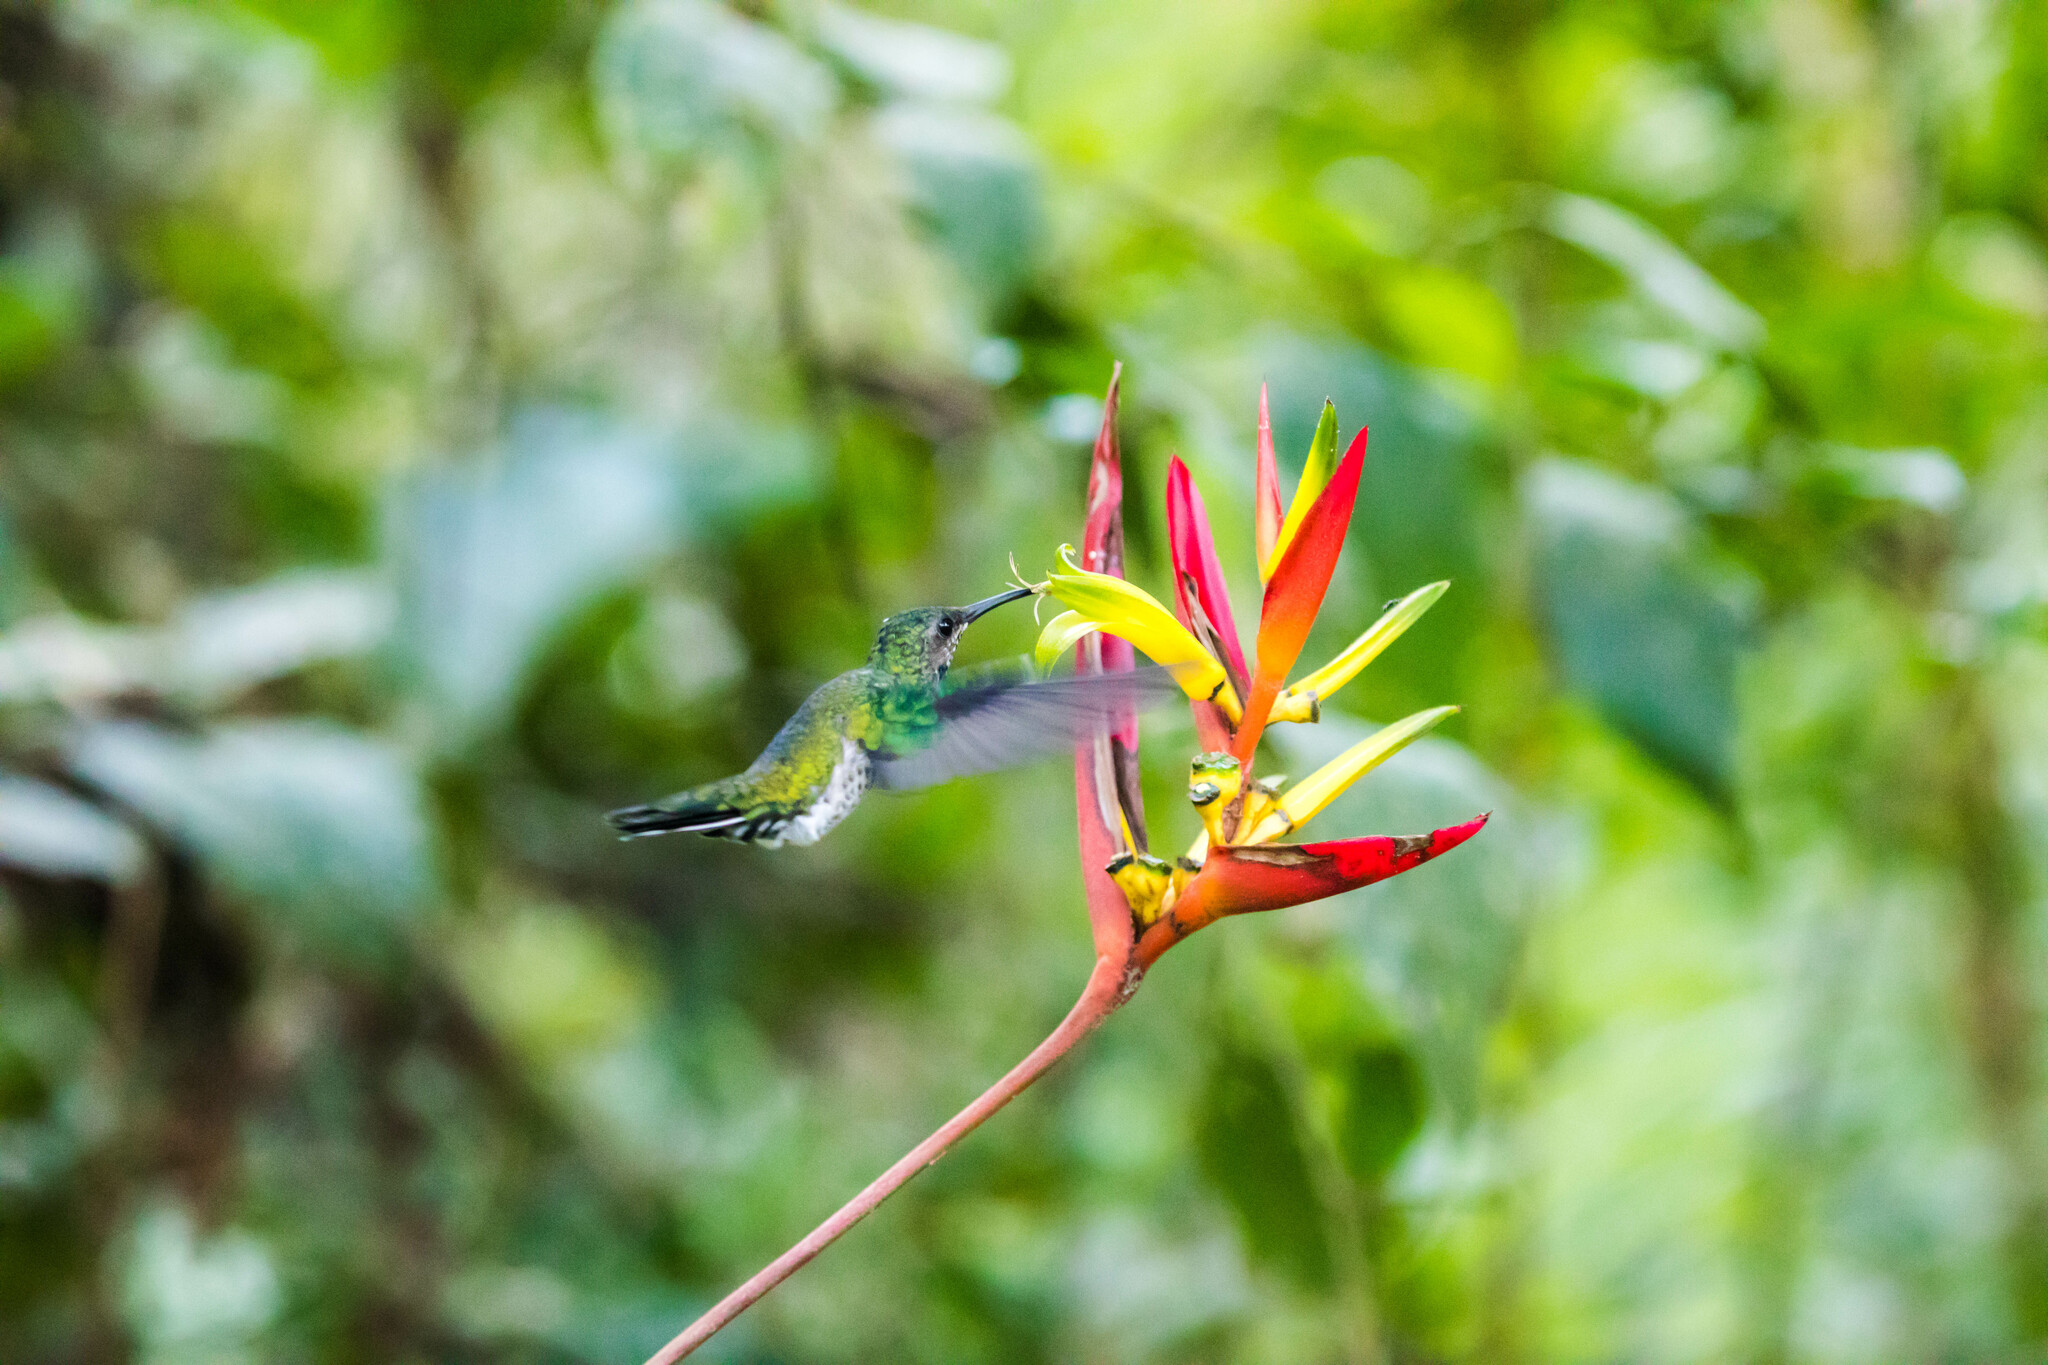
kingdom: Animalia
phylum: Chordata
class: Aves
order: Apodiformes
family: Trochilidae
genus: Florisuga
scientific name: Florisuga mellivora
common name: White-necked jacobin
